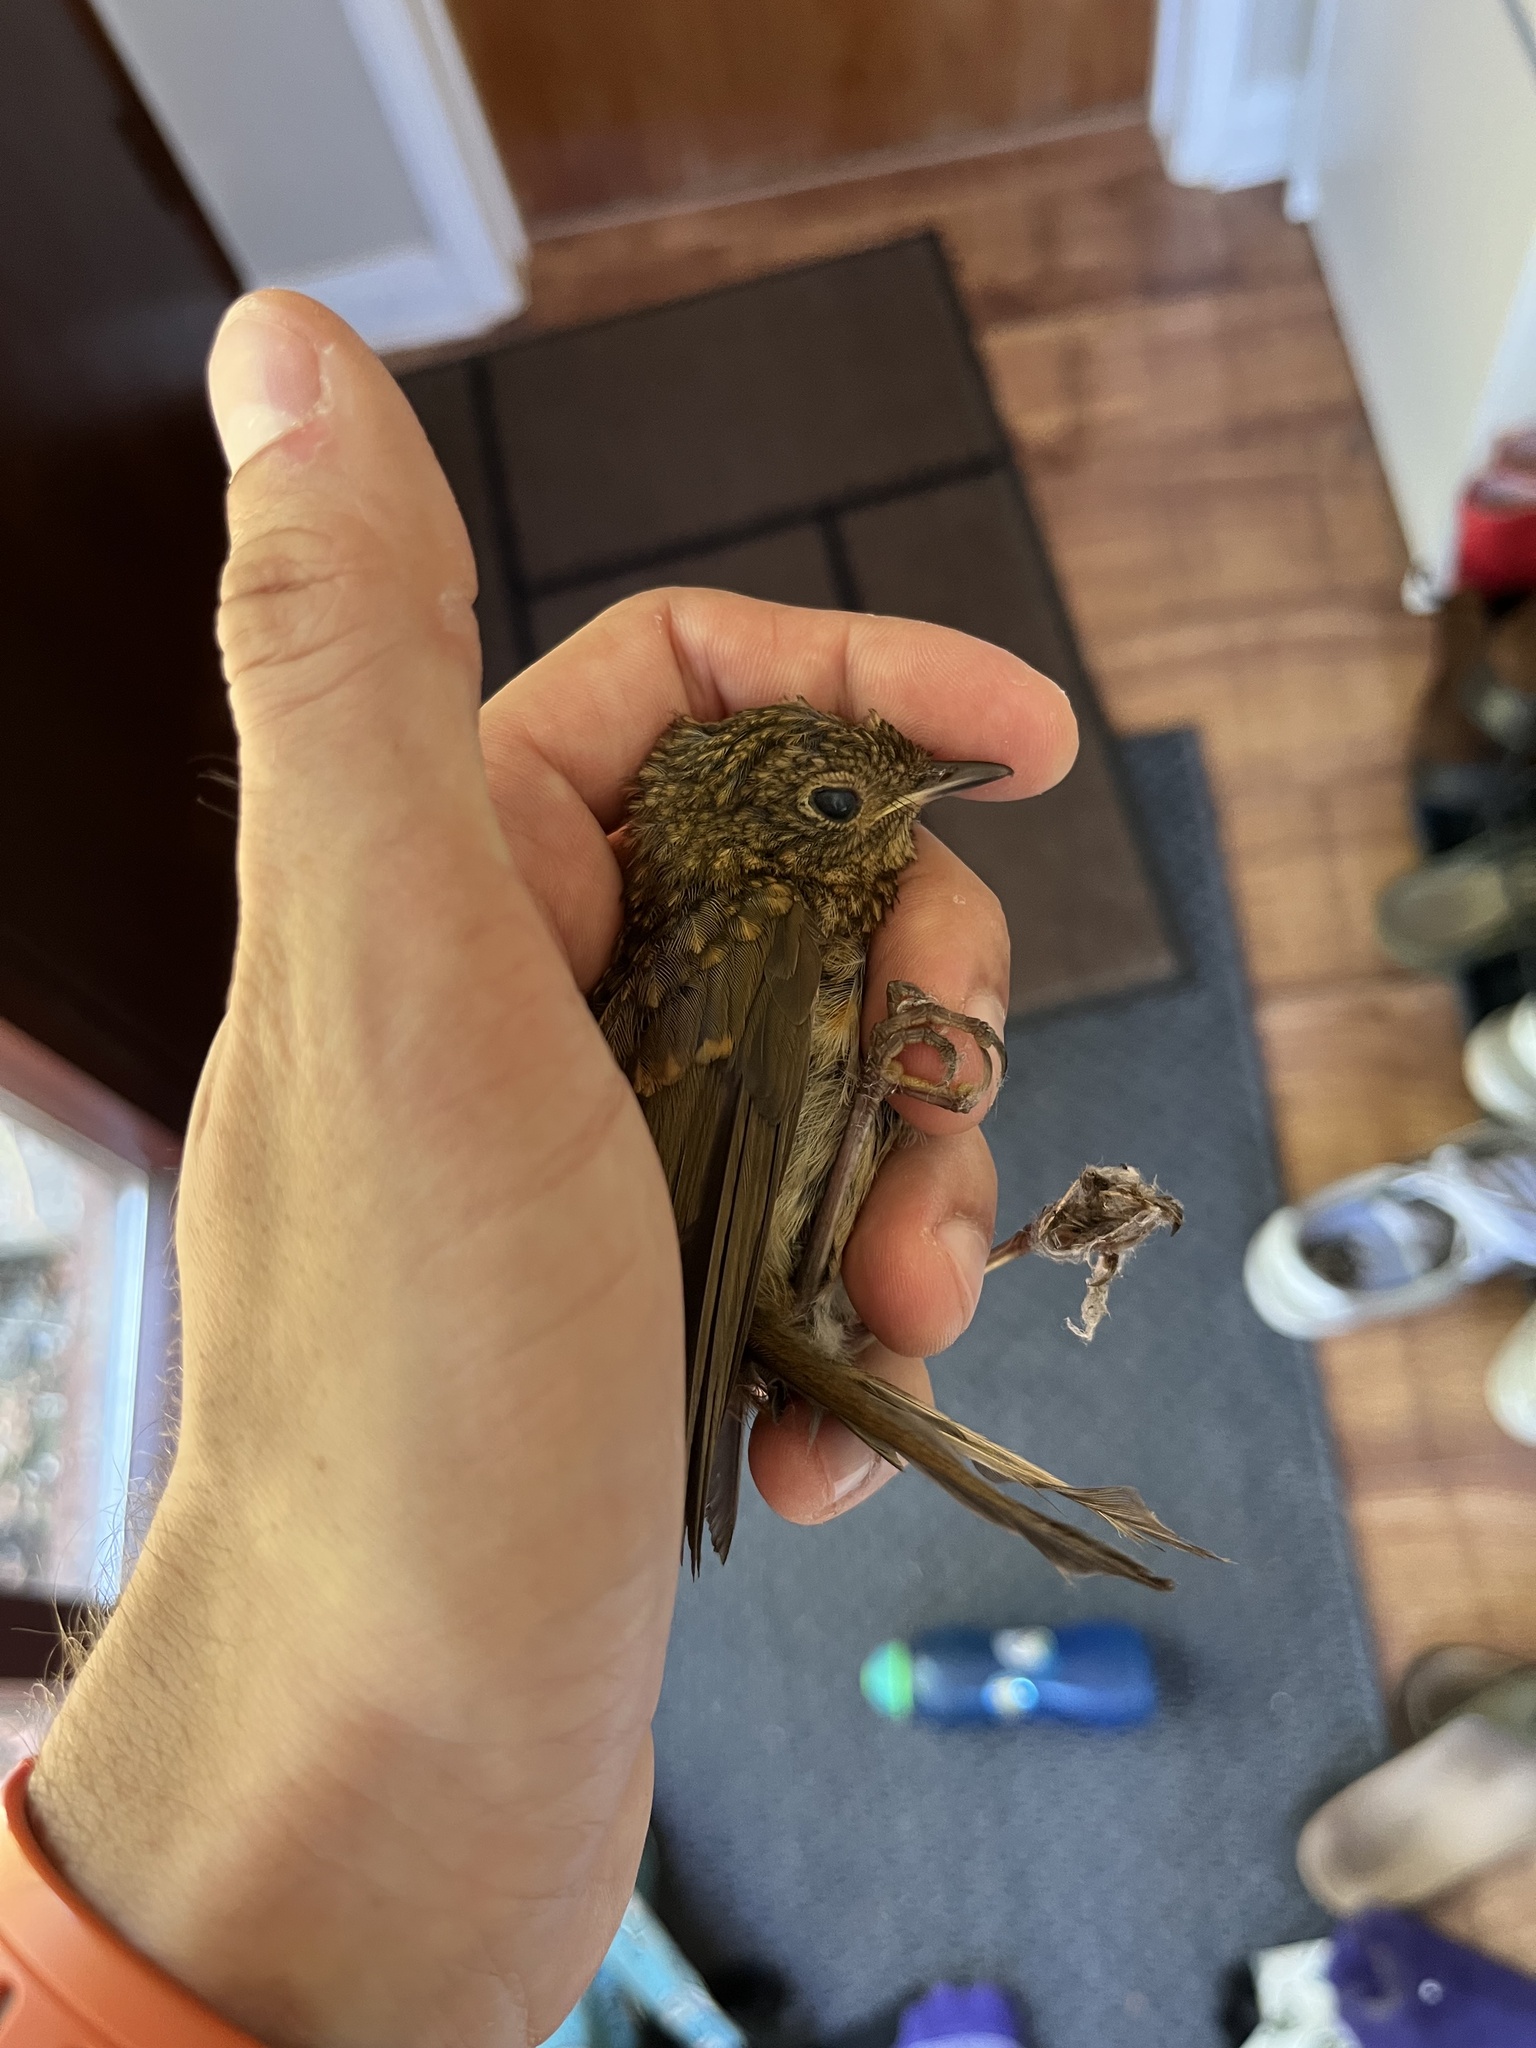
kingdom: Animalia
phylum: Chordata
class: Aves
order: Passeriformes
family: Muscicapidae
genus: Erithacus
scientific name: Erithacus rubecula
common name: European robin
